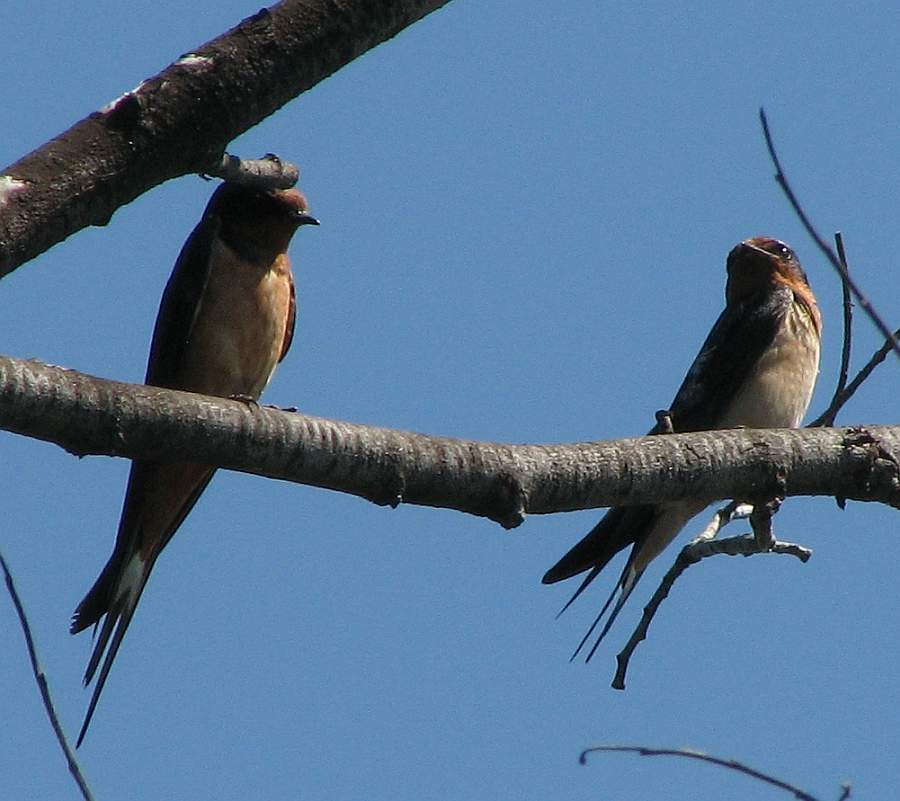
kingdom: Animalia
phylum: Chordata
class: Aves
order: Passeriformes
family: Hirundinidae
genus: Hirundo
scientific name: Hirundo rustica
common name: Barn swallow
